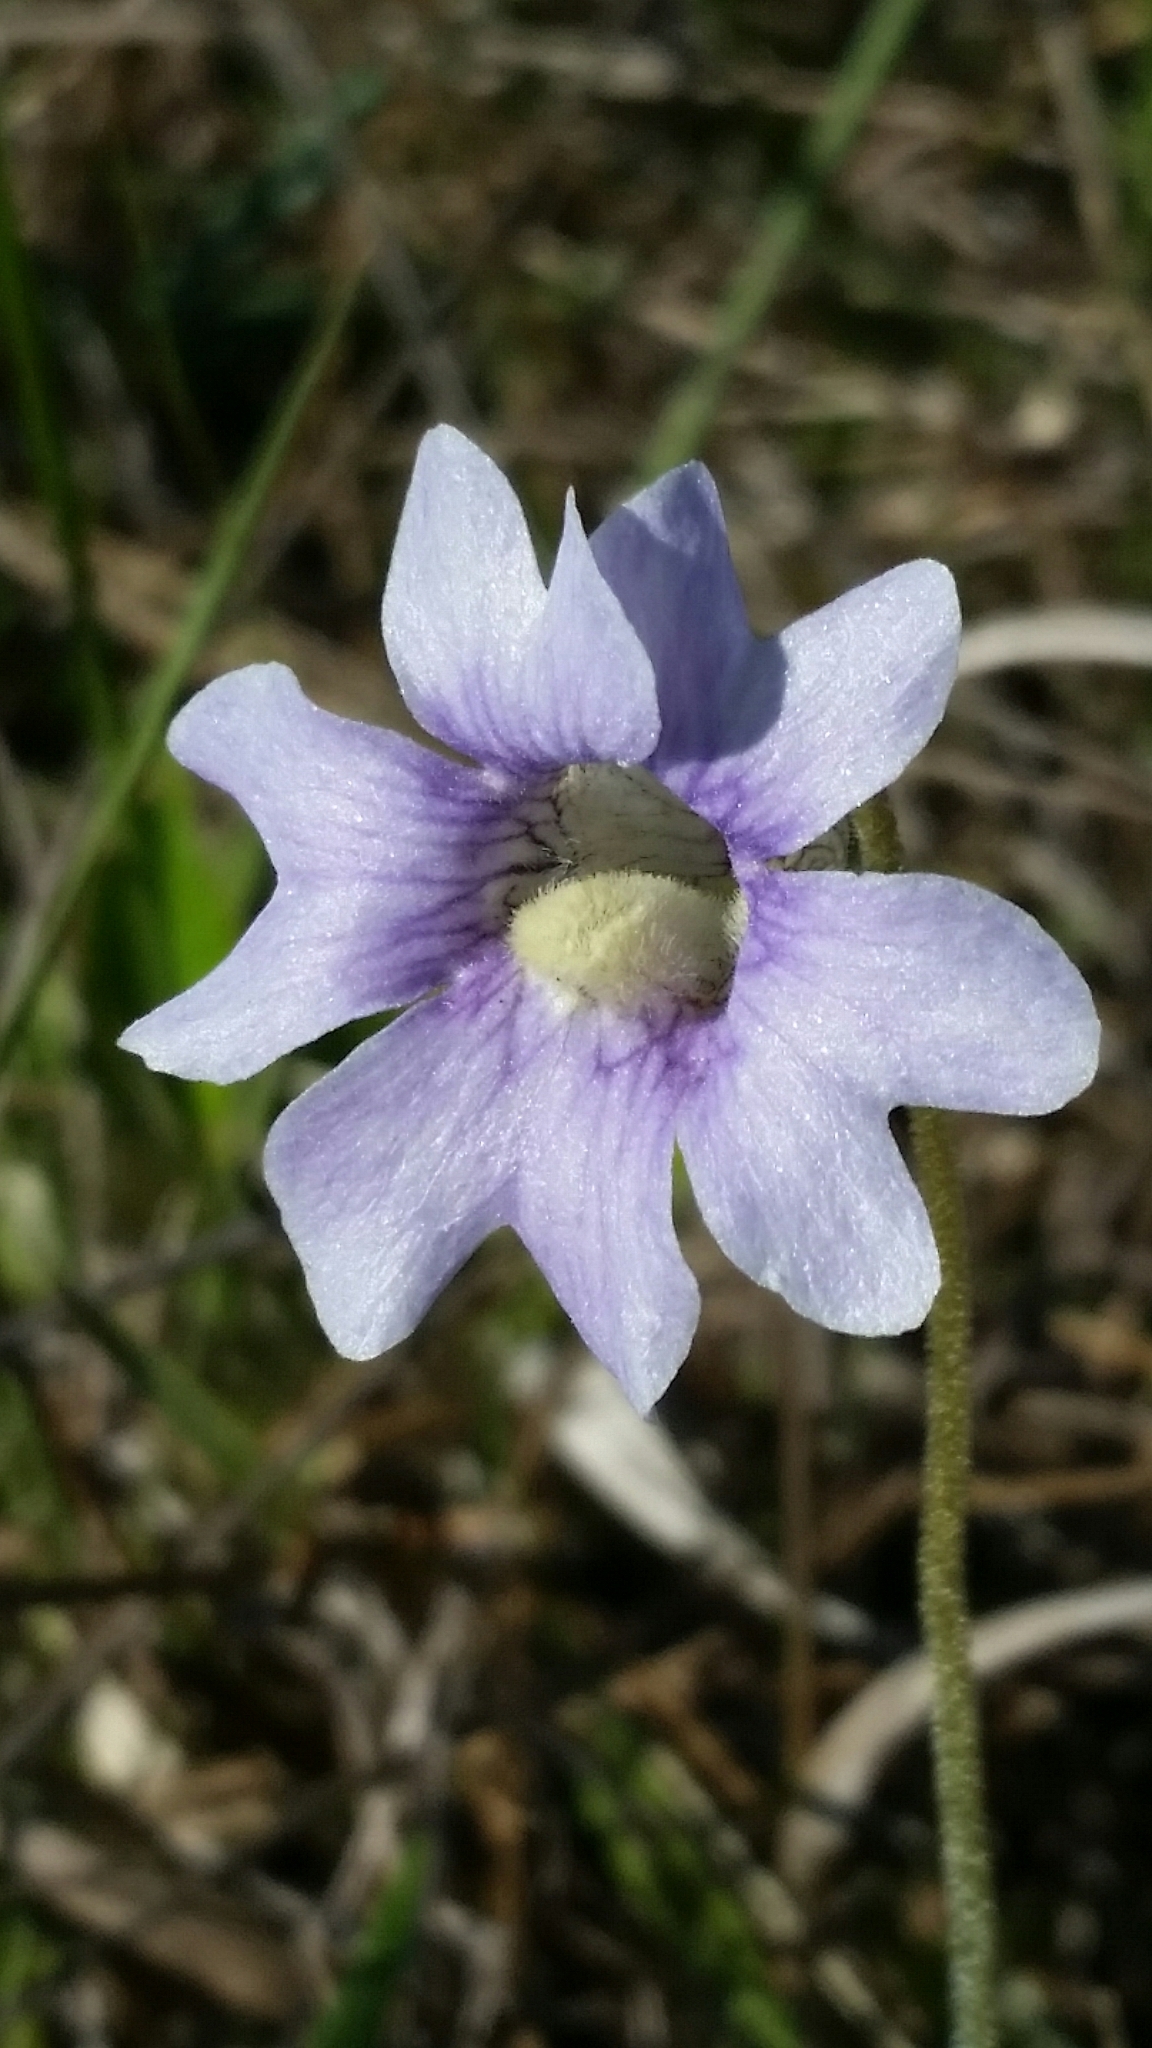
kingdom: Plantae
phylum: Tracheophyta
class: Magnoliopsida
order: Lamiales
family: Lentibulariaceae
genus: Pinguicula
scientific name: Pinguicula caerulea
